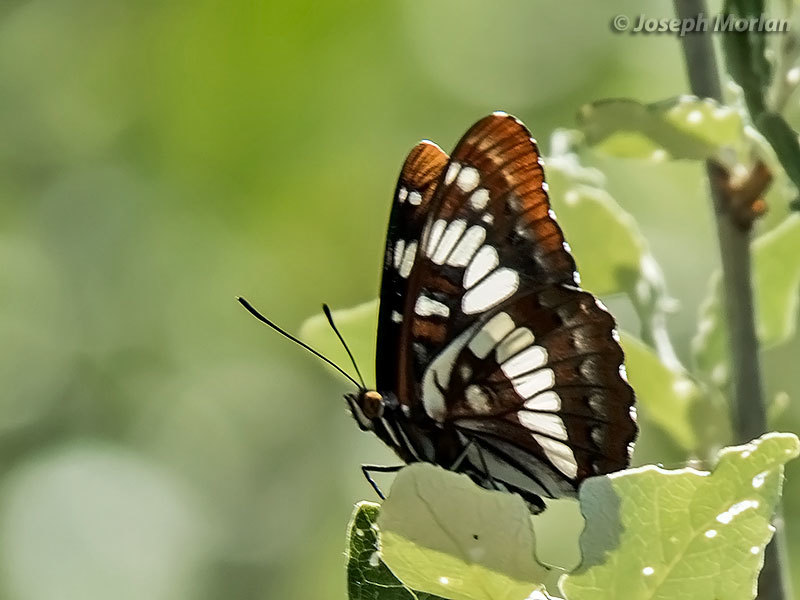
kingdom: Animalia
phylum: Arthropoda
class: Insecta
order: Lepidoptera
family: Nymphalidae
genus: Limenitis
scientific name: Limenitis lorquini
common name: Lorquin's admiral
